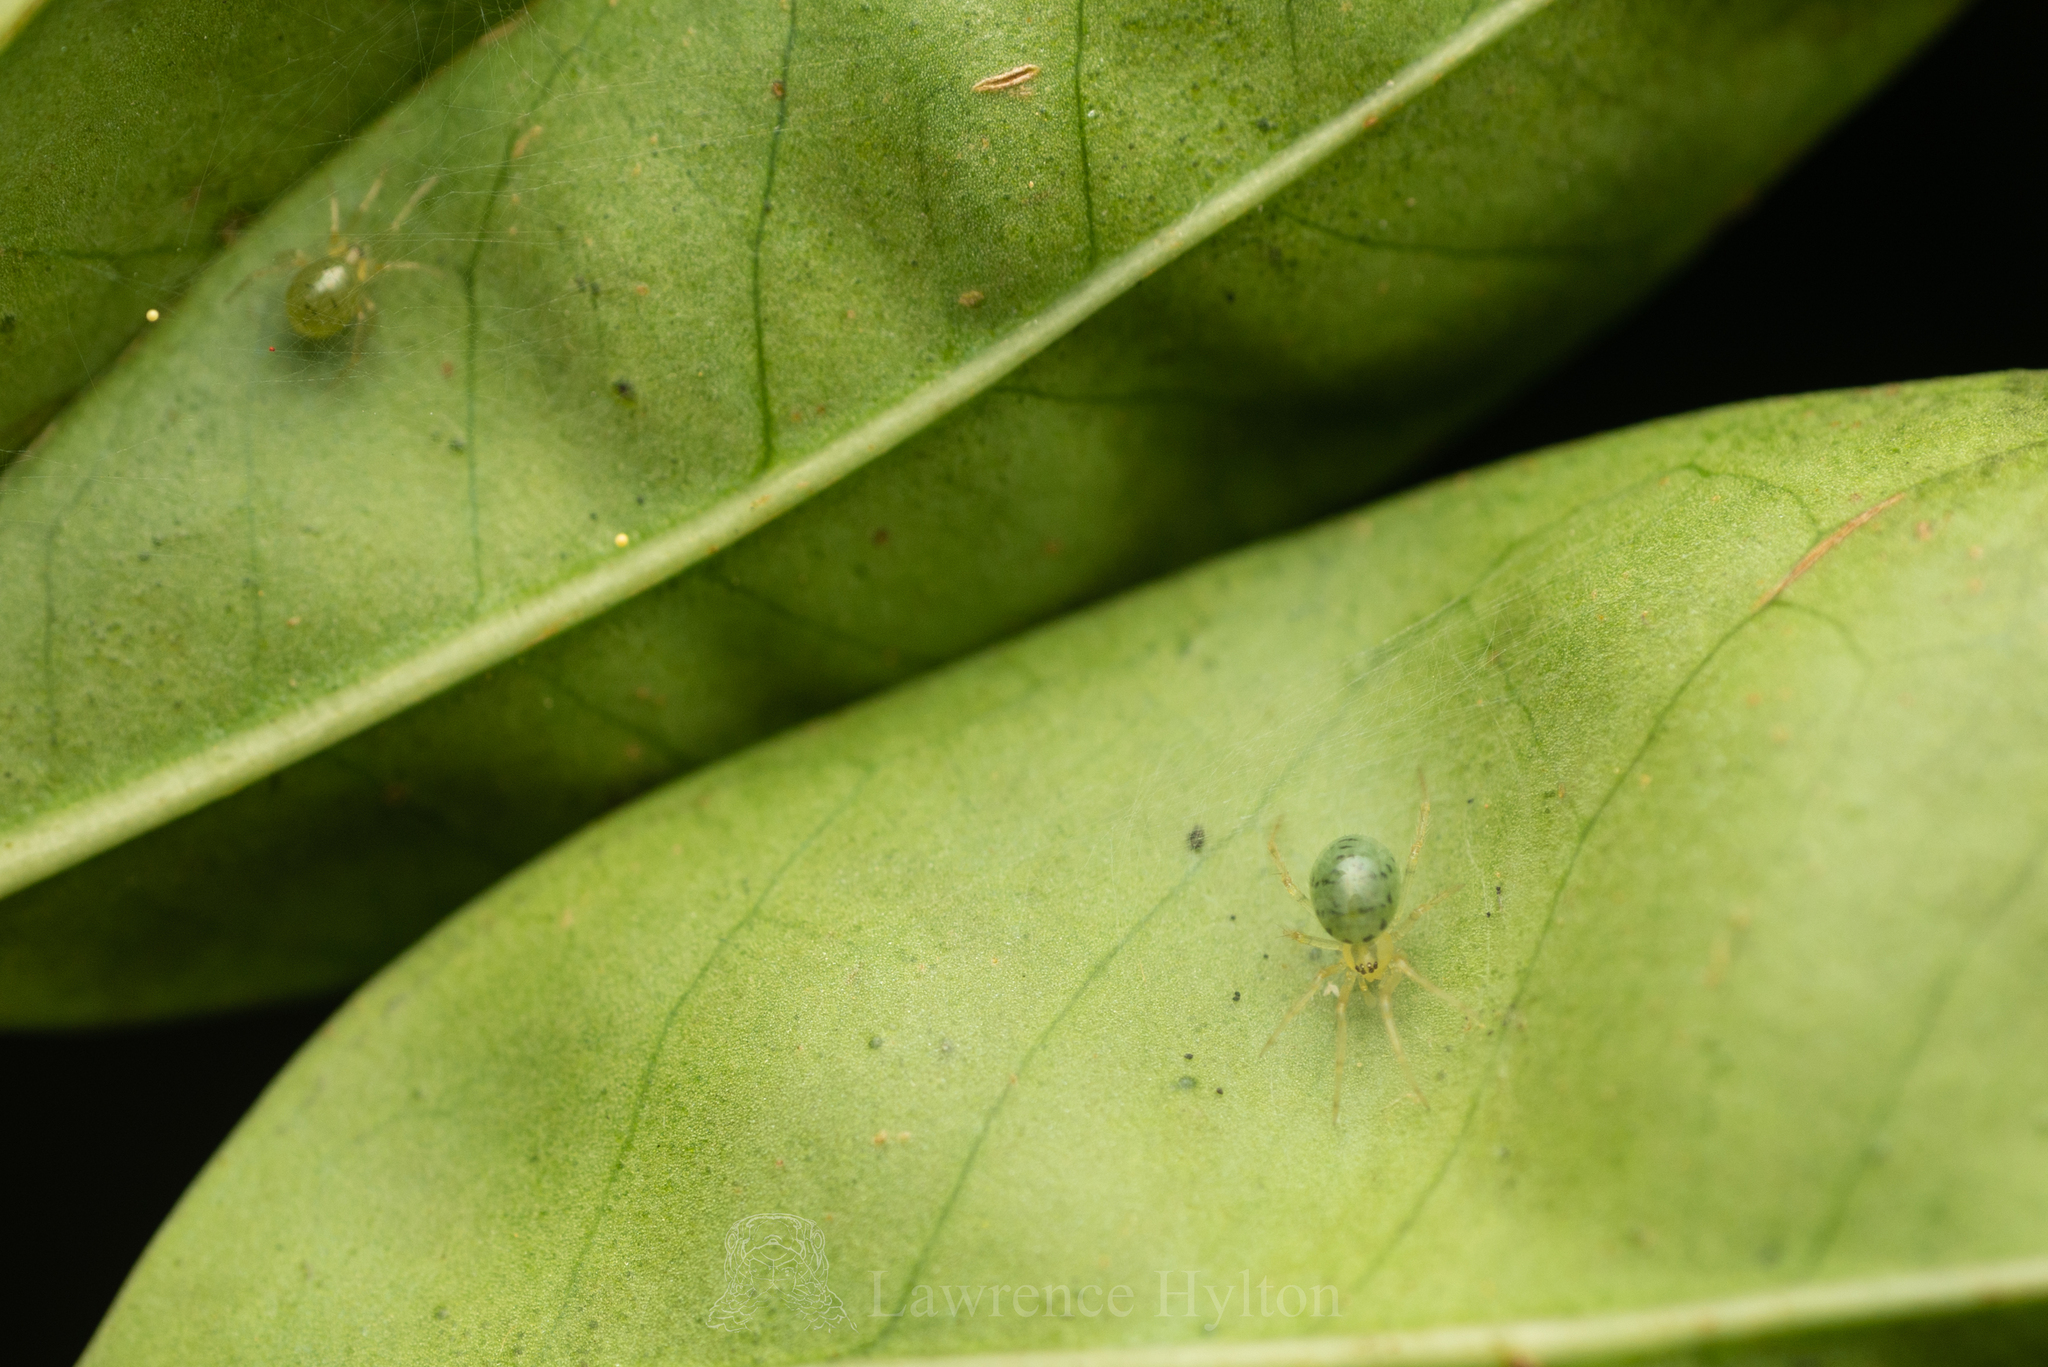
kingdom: Animalia
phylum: Arthropoda
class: Arachnida
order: Araneae
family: Theridiidae
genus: Phycosoma
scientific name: Phycosoma digitula
